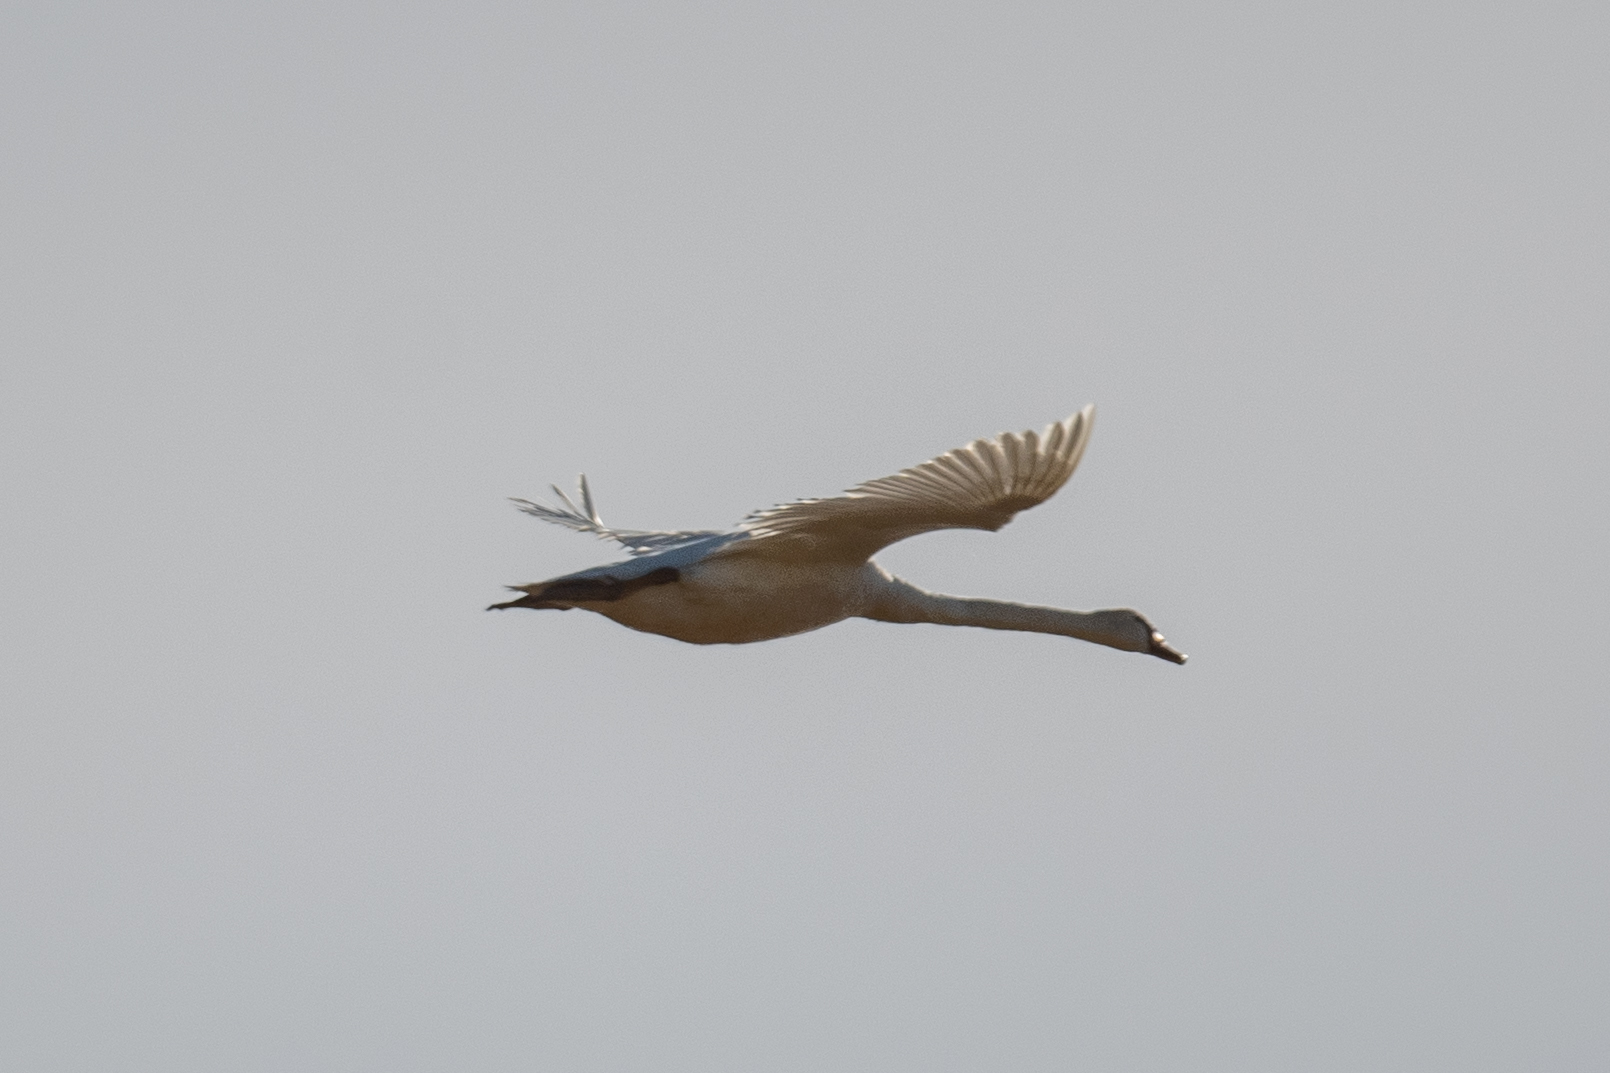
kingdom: Animalia
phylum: Chordata
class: Aves
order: Anseriformes
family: Anatidae
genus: Cygnus
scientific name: Cygnus olor
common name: Mute swan
